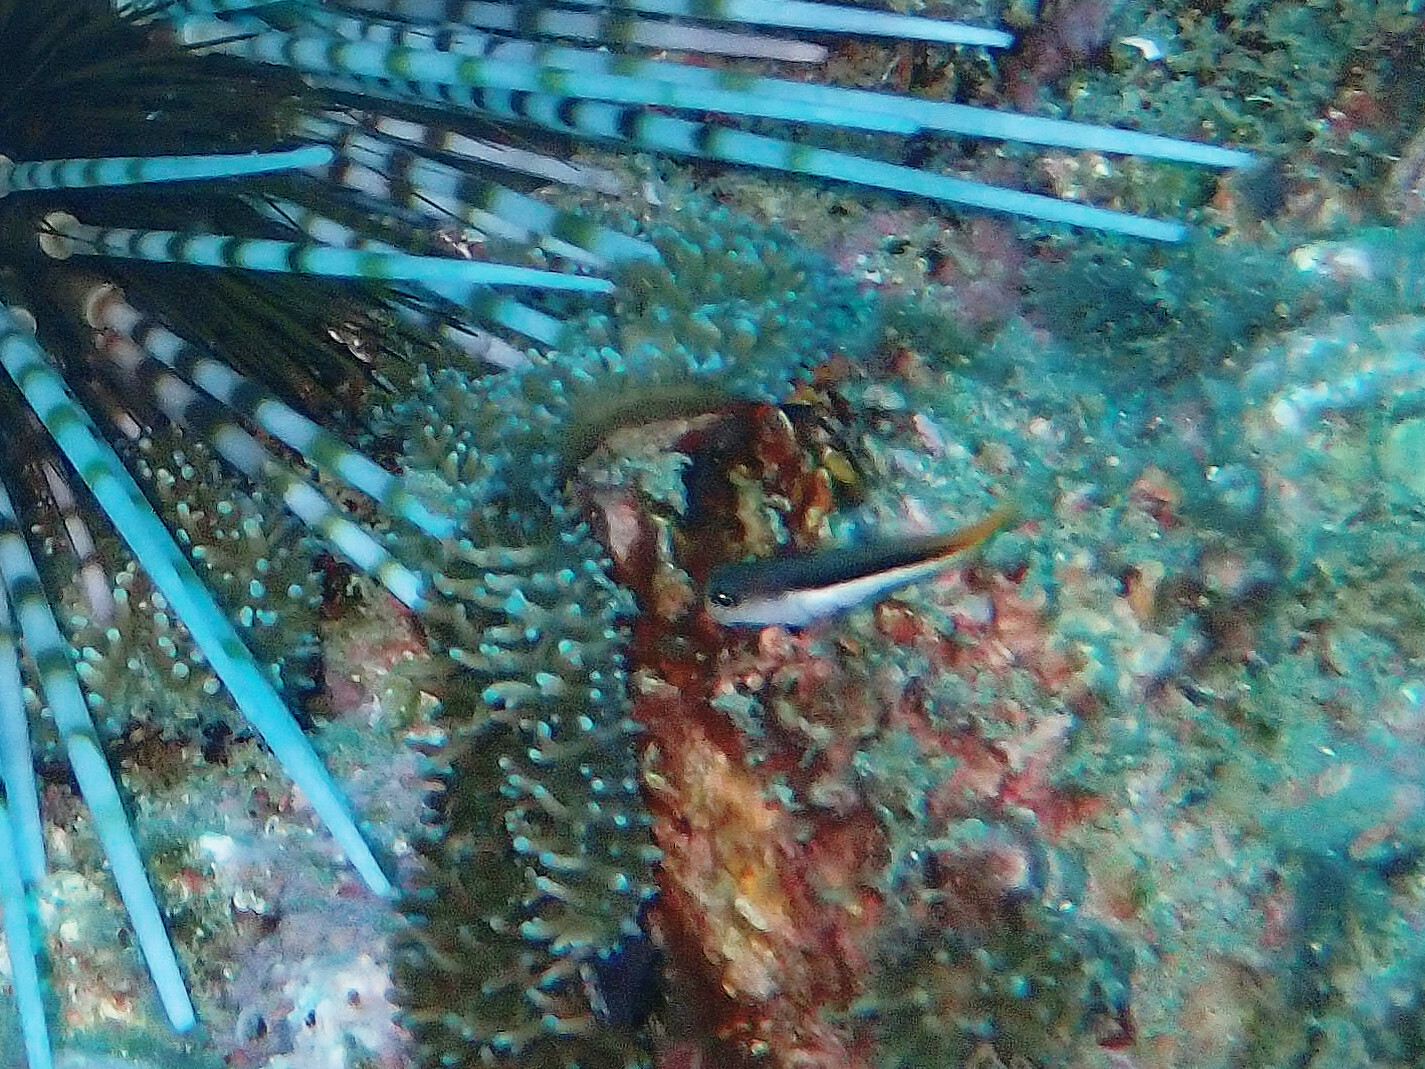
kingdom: Animalia
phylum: Chordata
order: Perciformes
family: Blenniidae
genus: Ecsenius
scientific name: Ecsenius bicolor
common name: Bicolor blenny
